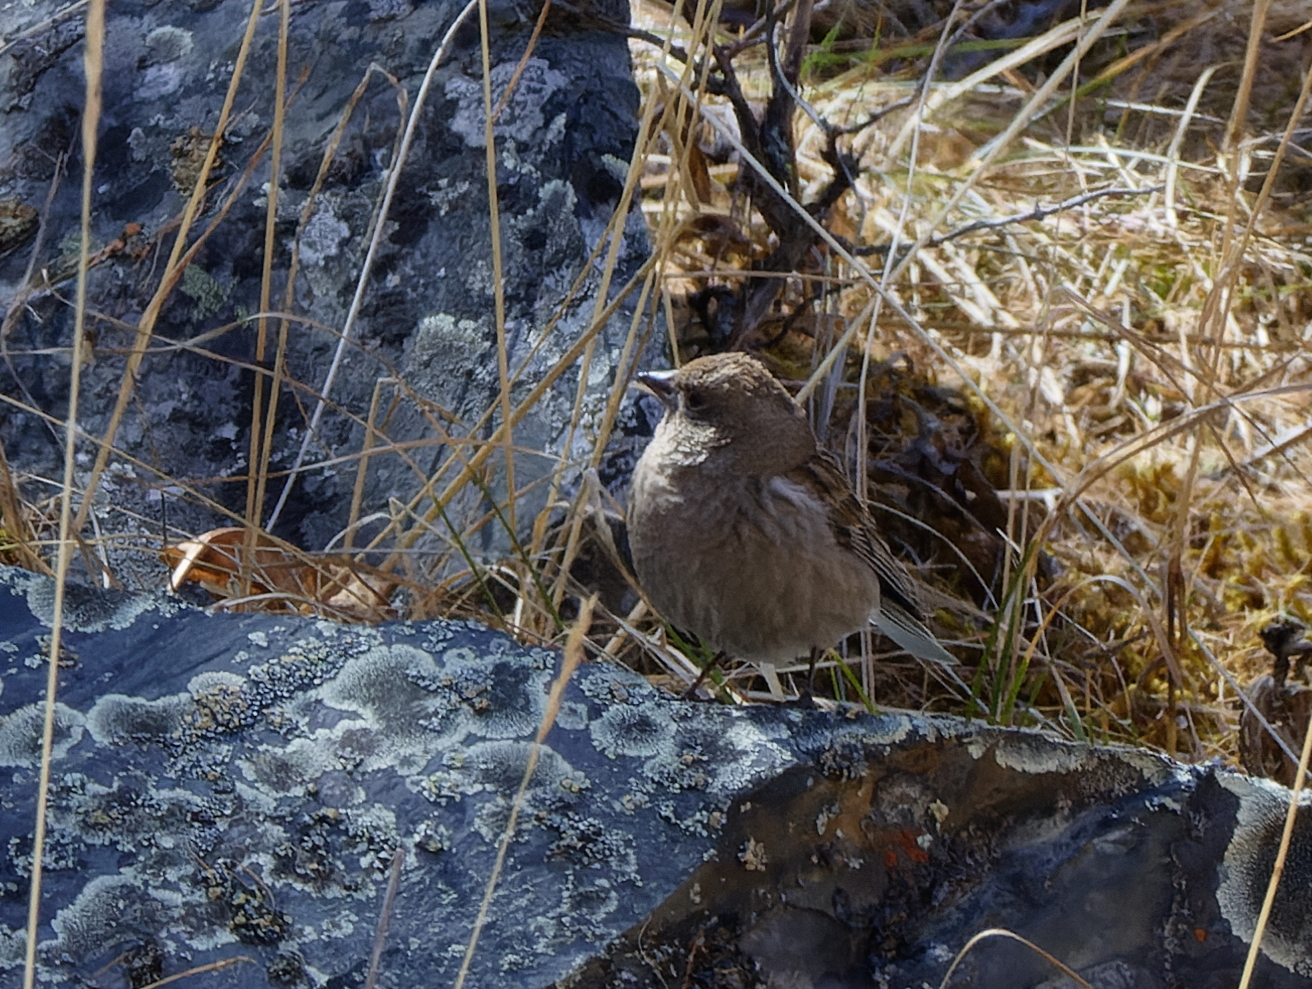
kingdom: Animalia
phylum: Chordata
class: Aves
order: Passeriformes
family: Fringillidae
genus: Leucosticte
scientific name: Leucosticte nemoricola
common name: Plain mountain finch
